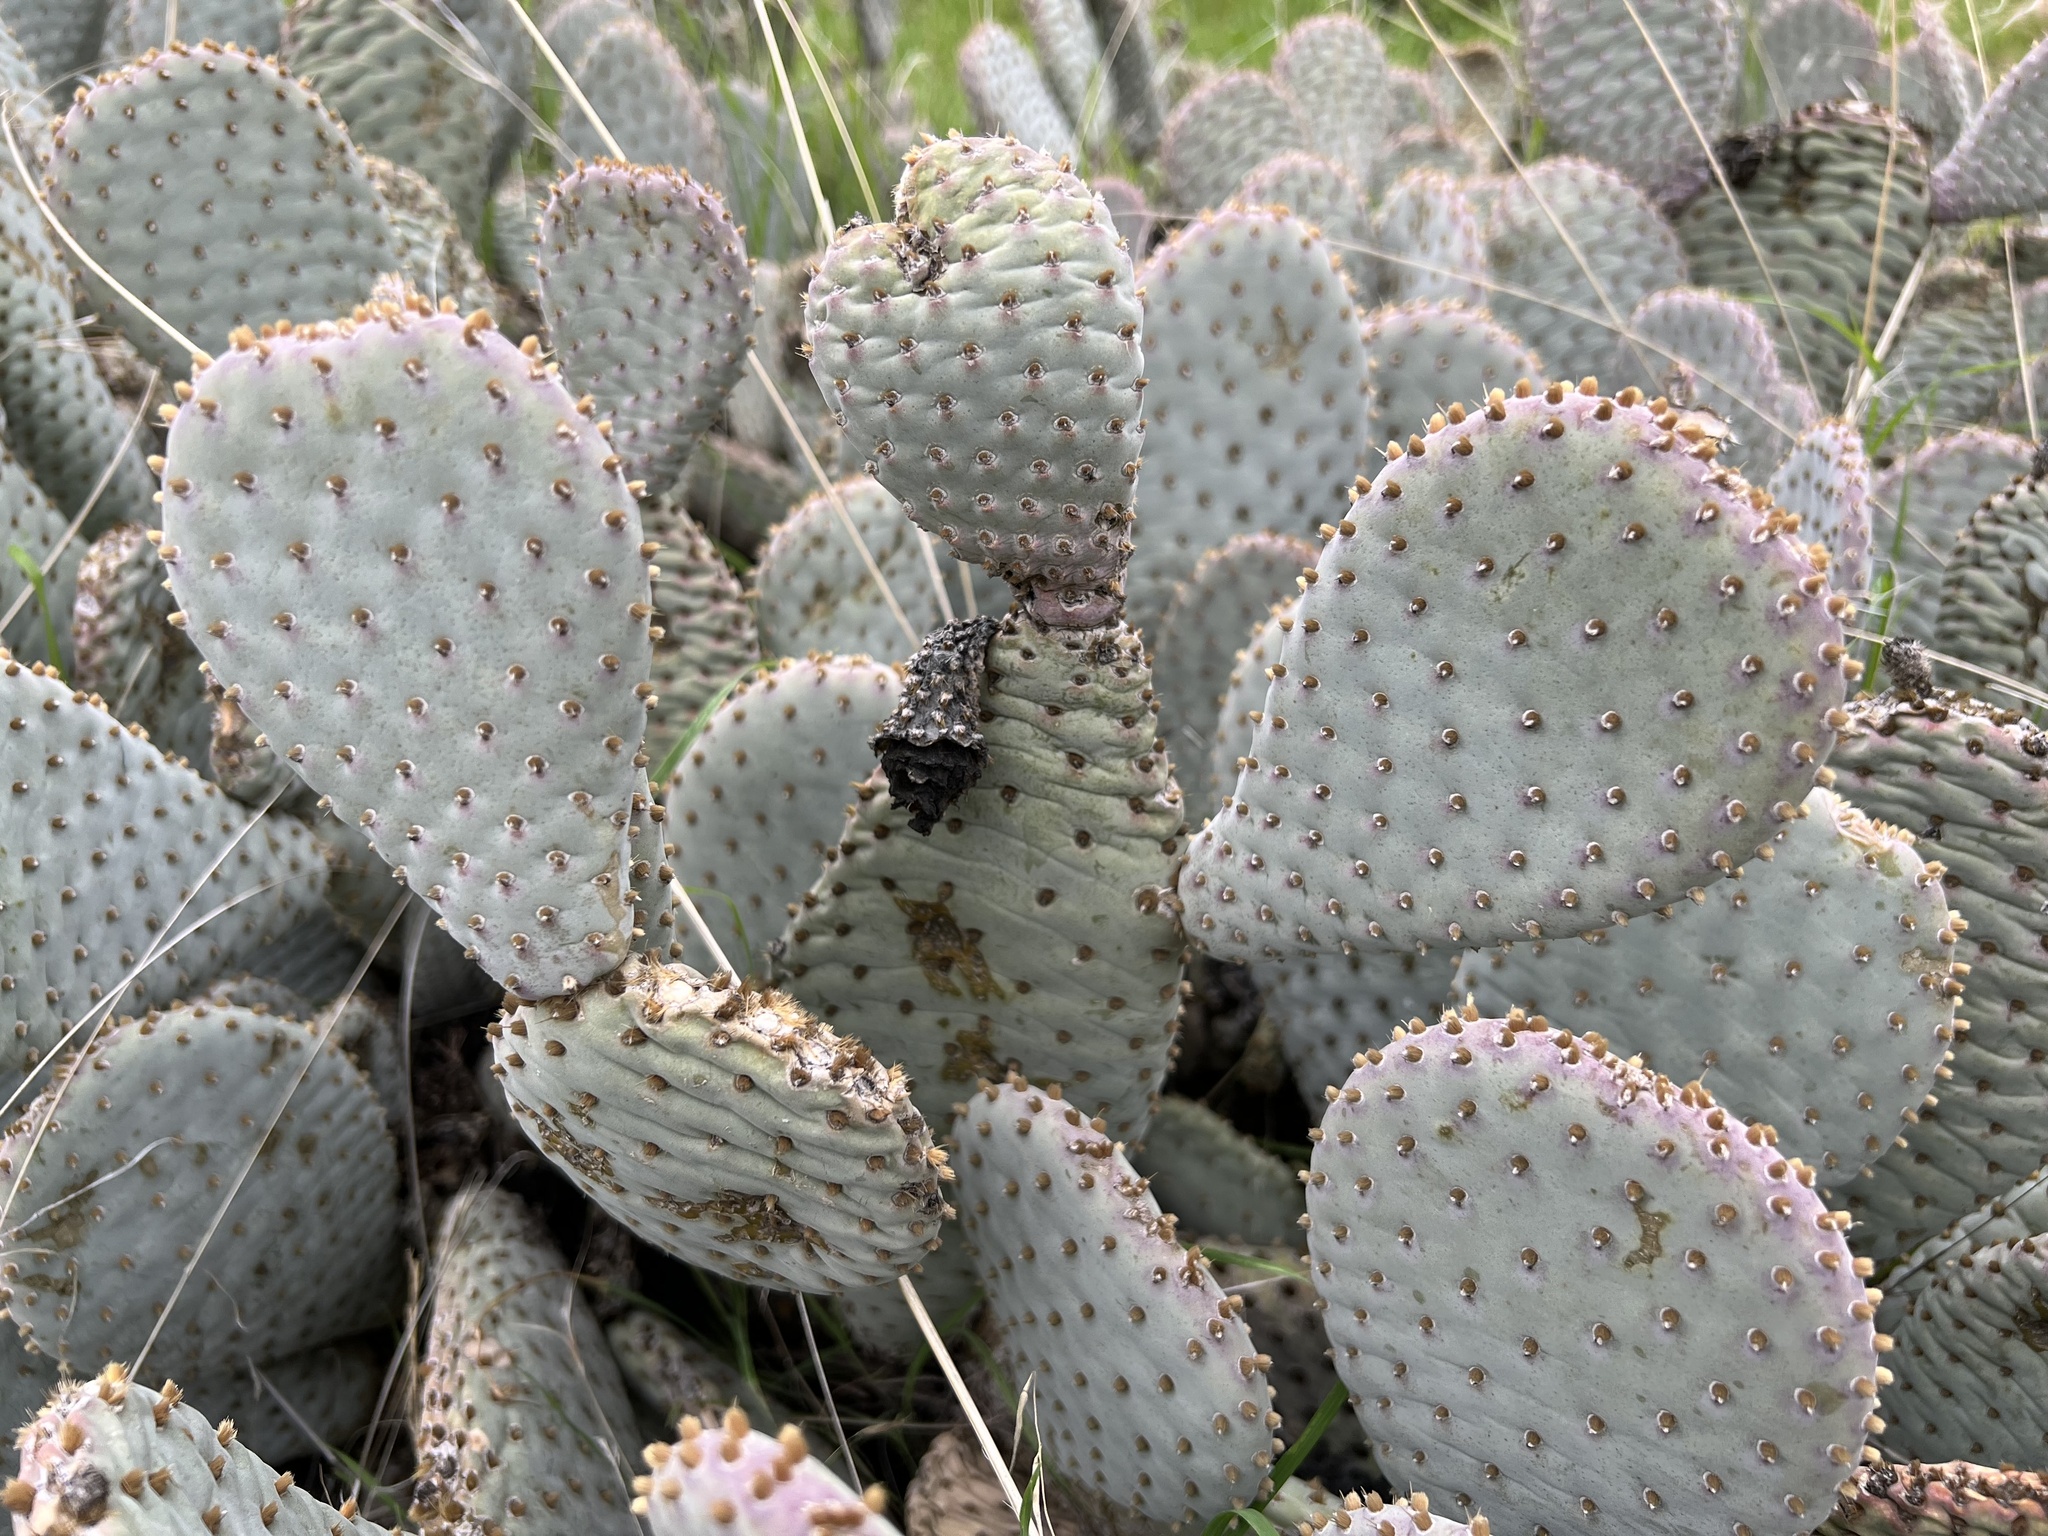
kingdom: Plantae
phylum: Tracheophyta
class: Magnoliopsida
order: Caryophyllales
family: Cactaceae
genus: Opuntia
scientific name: Opuntia basilaris
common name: Beavertail prickly-pear
